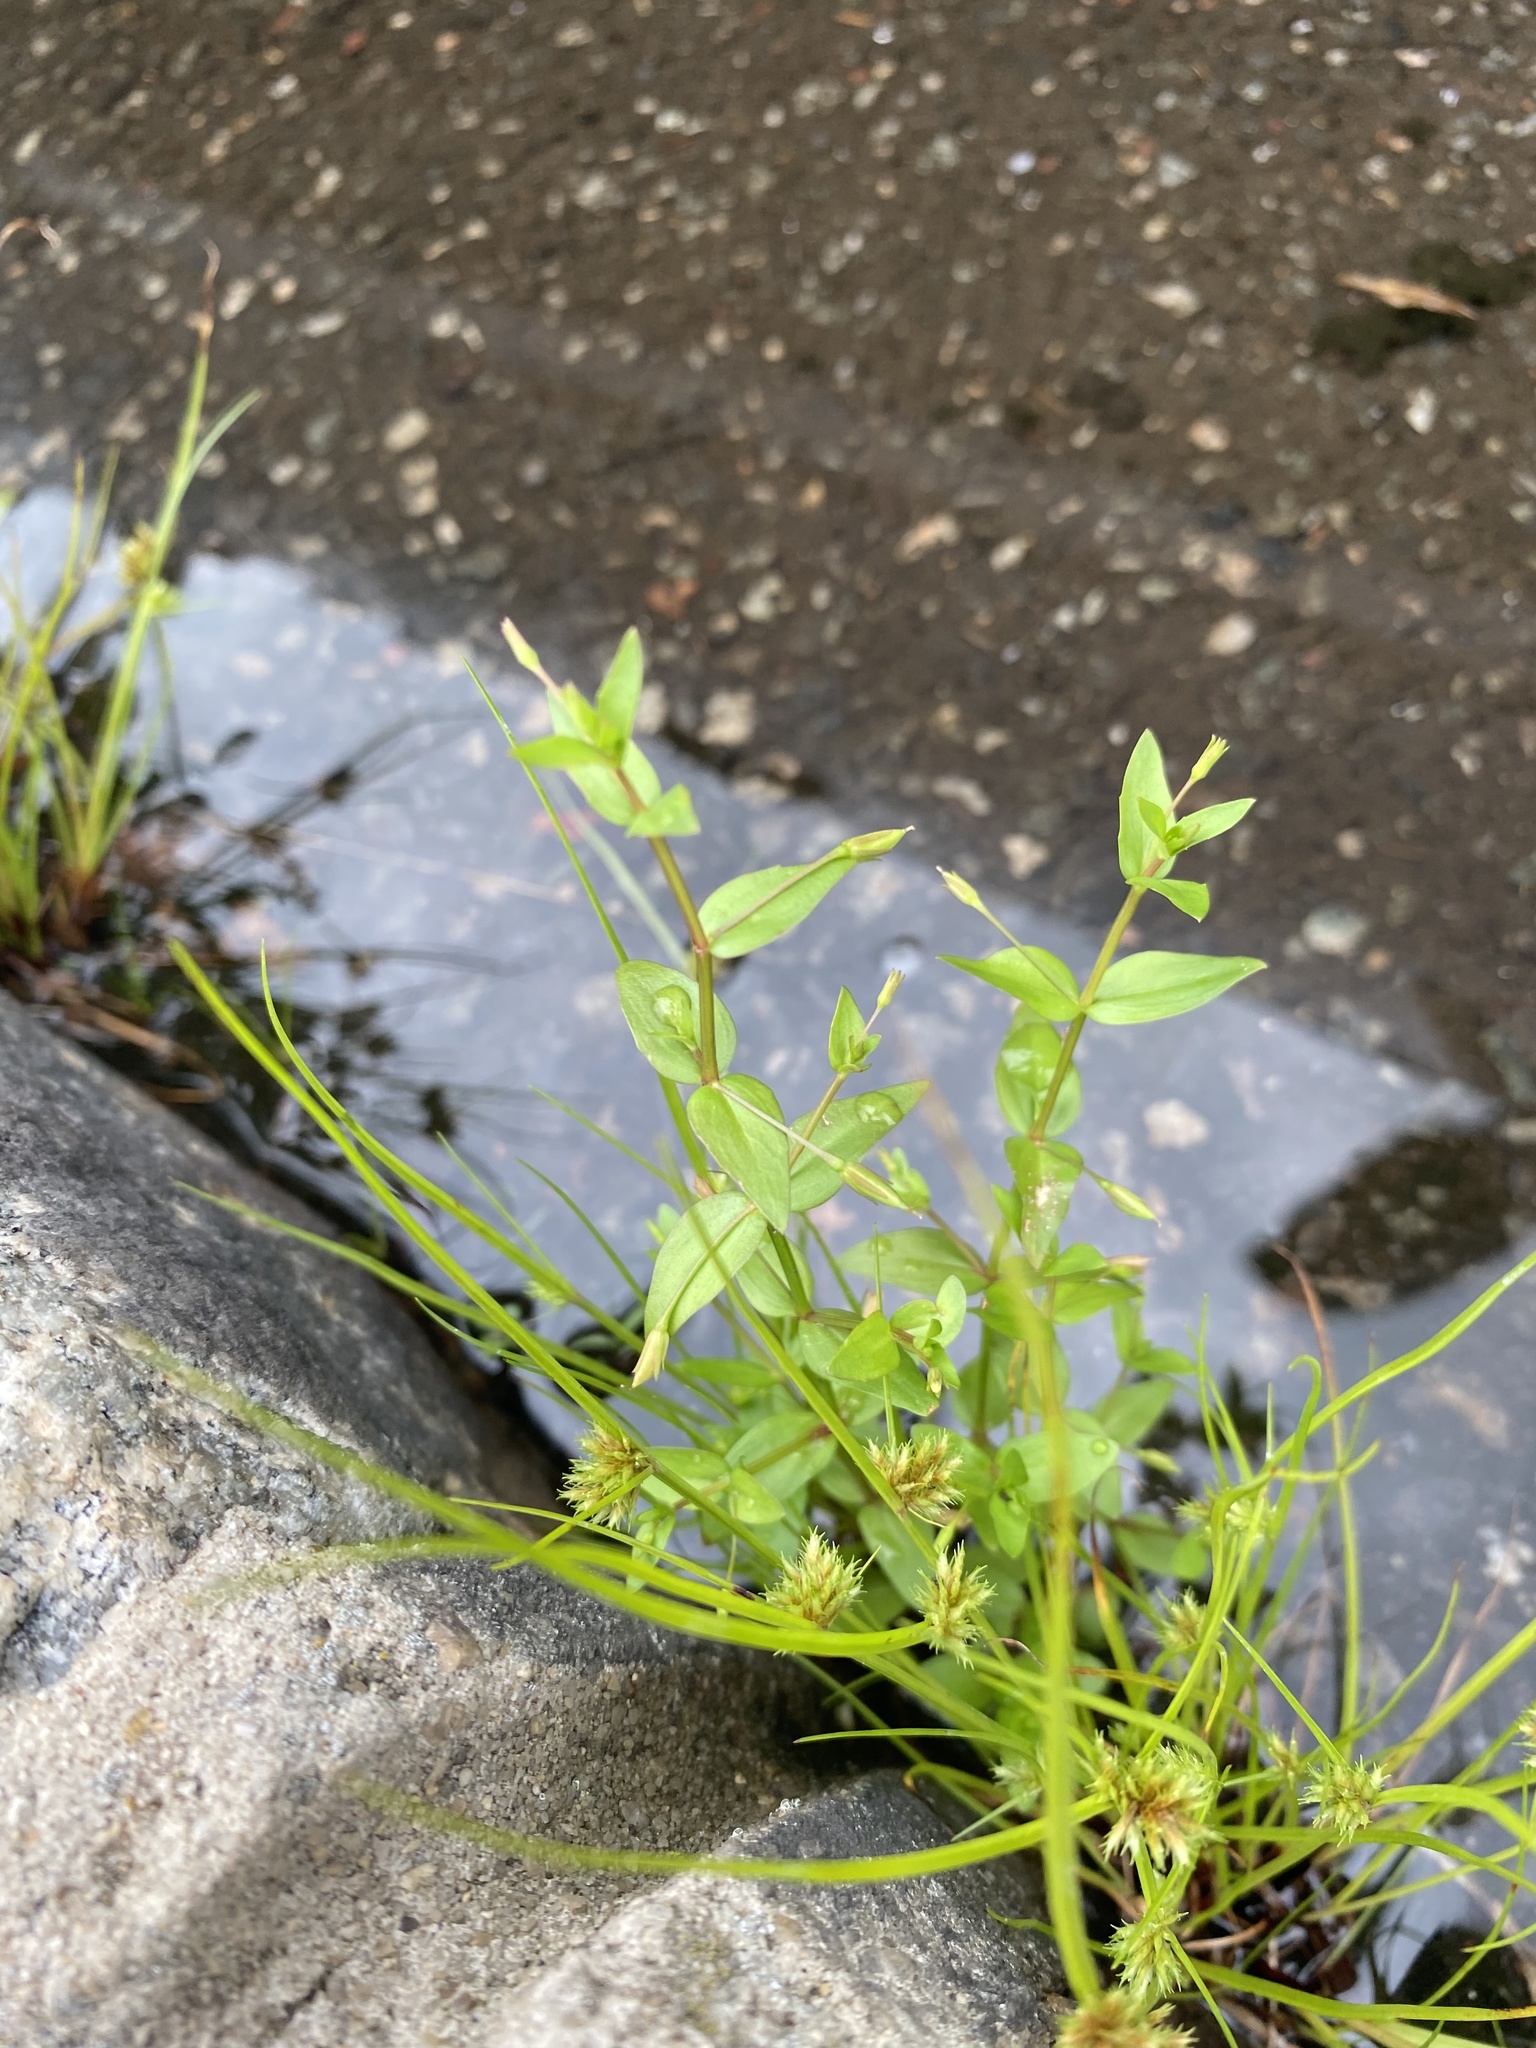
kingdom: Plantae
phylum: Tracheophyta
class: Magnoliopsida
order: Lamiales
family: Linderniaceae
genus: Lindernia
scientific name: Lindernia dubia
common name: Annual false pimpernel
